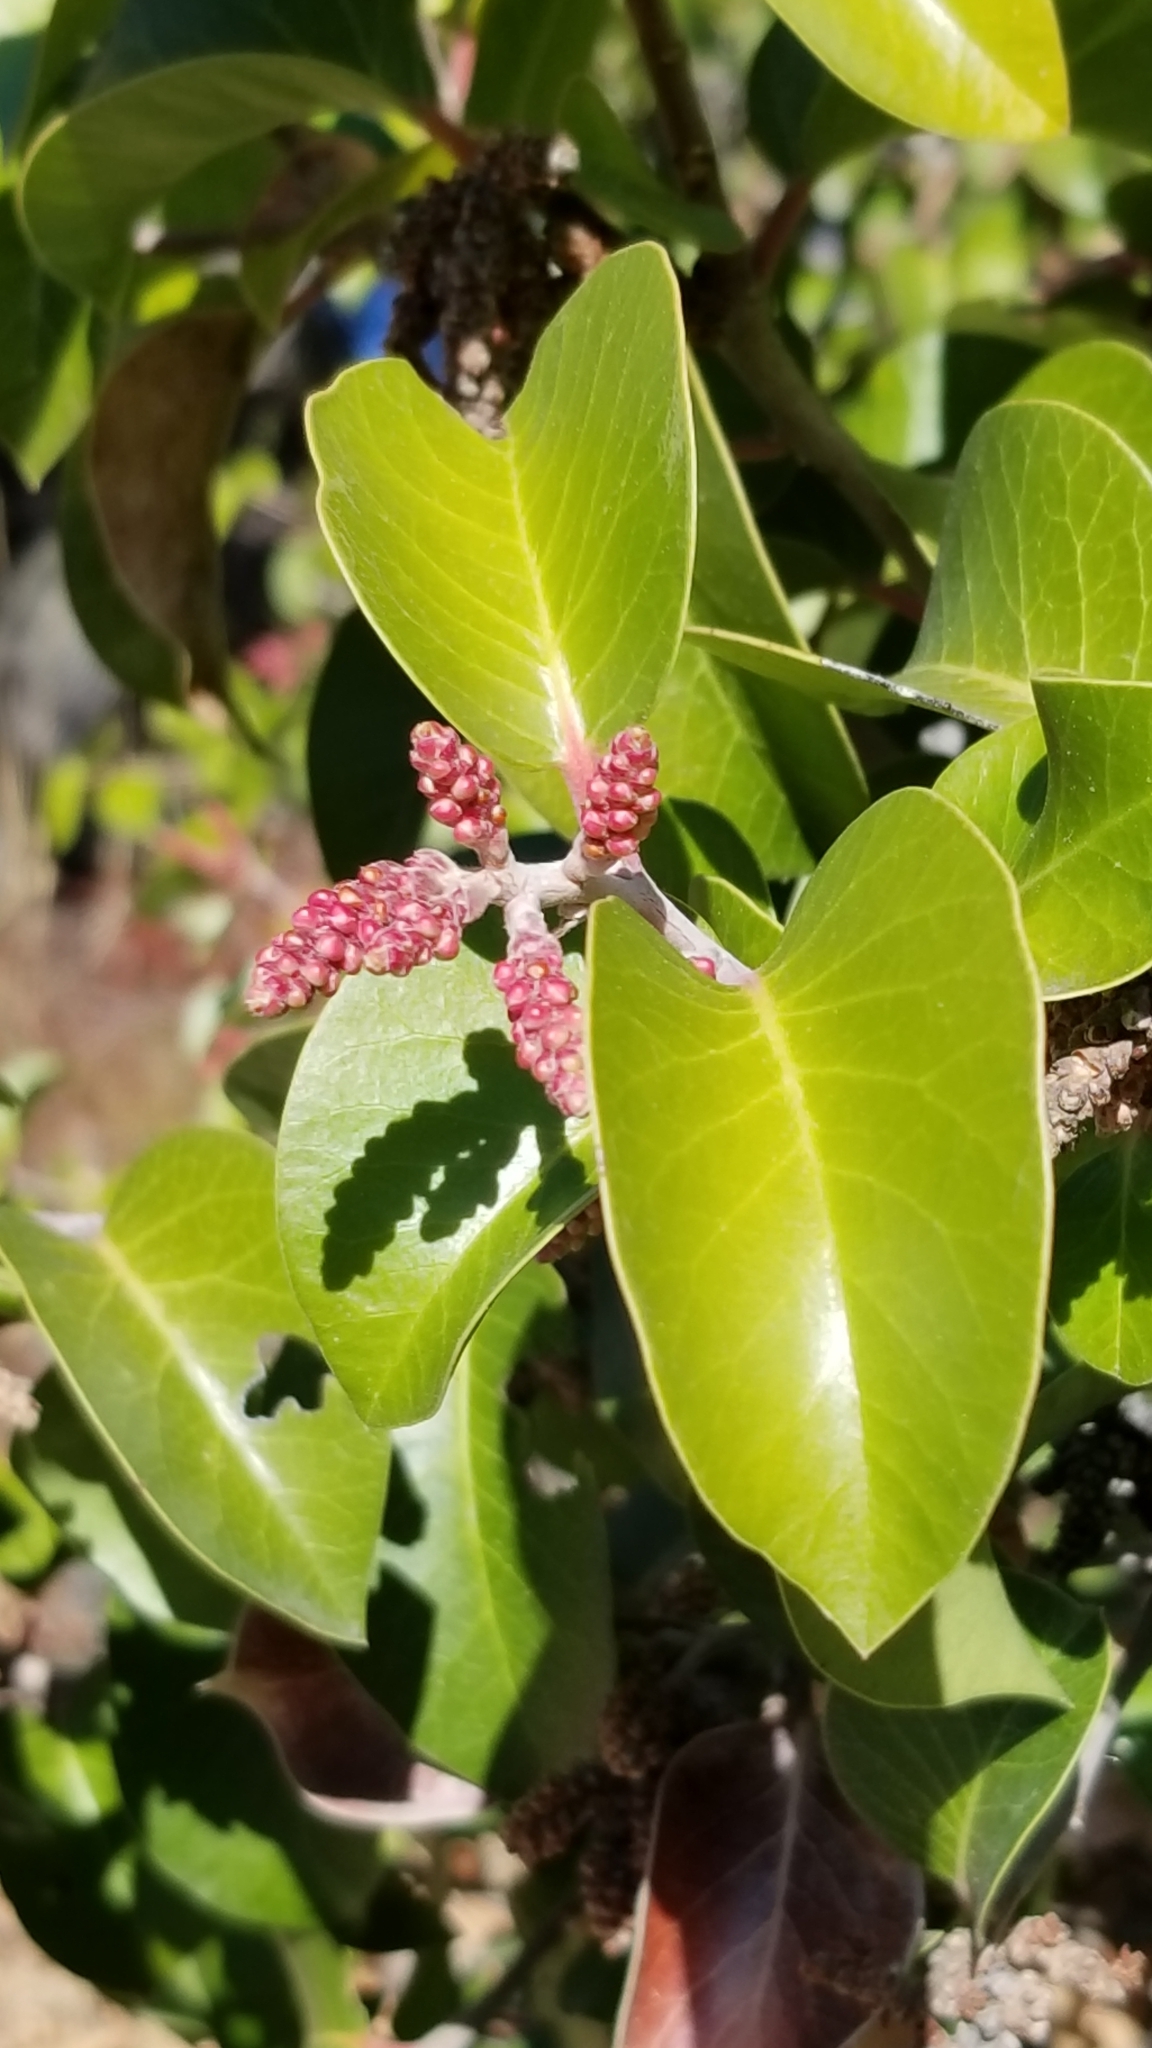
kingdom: Plantae
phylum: Tracheophyta
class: Magnoliopsida
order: Sapindales
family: Anacardiaceae
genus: Rhus
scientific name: Rhus ovata
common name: Sugar sumac
